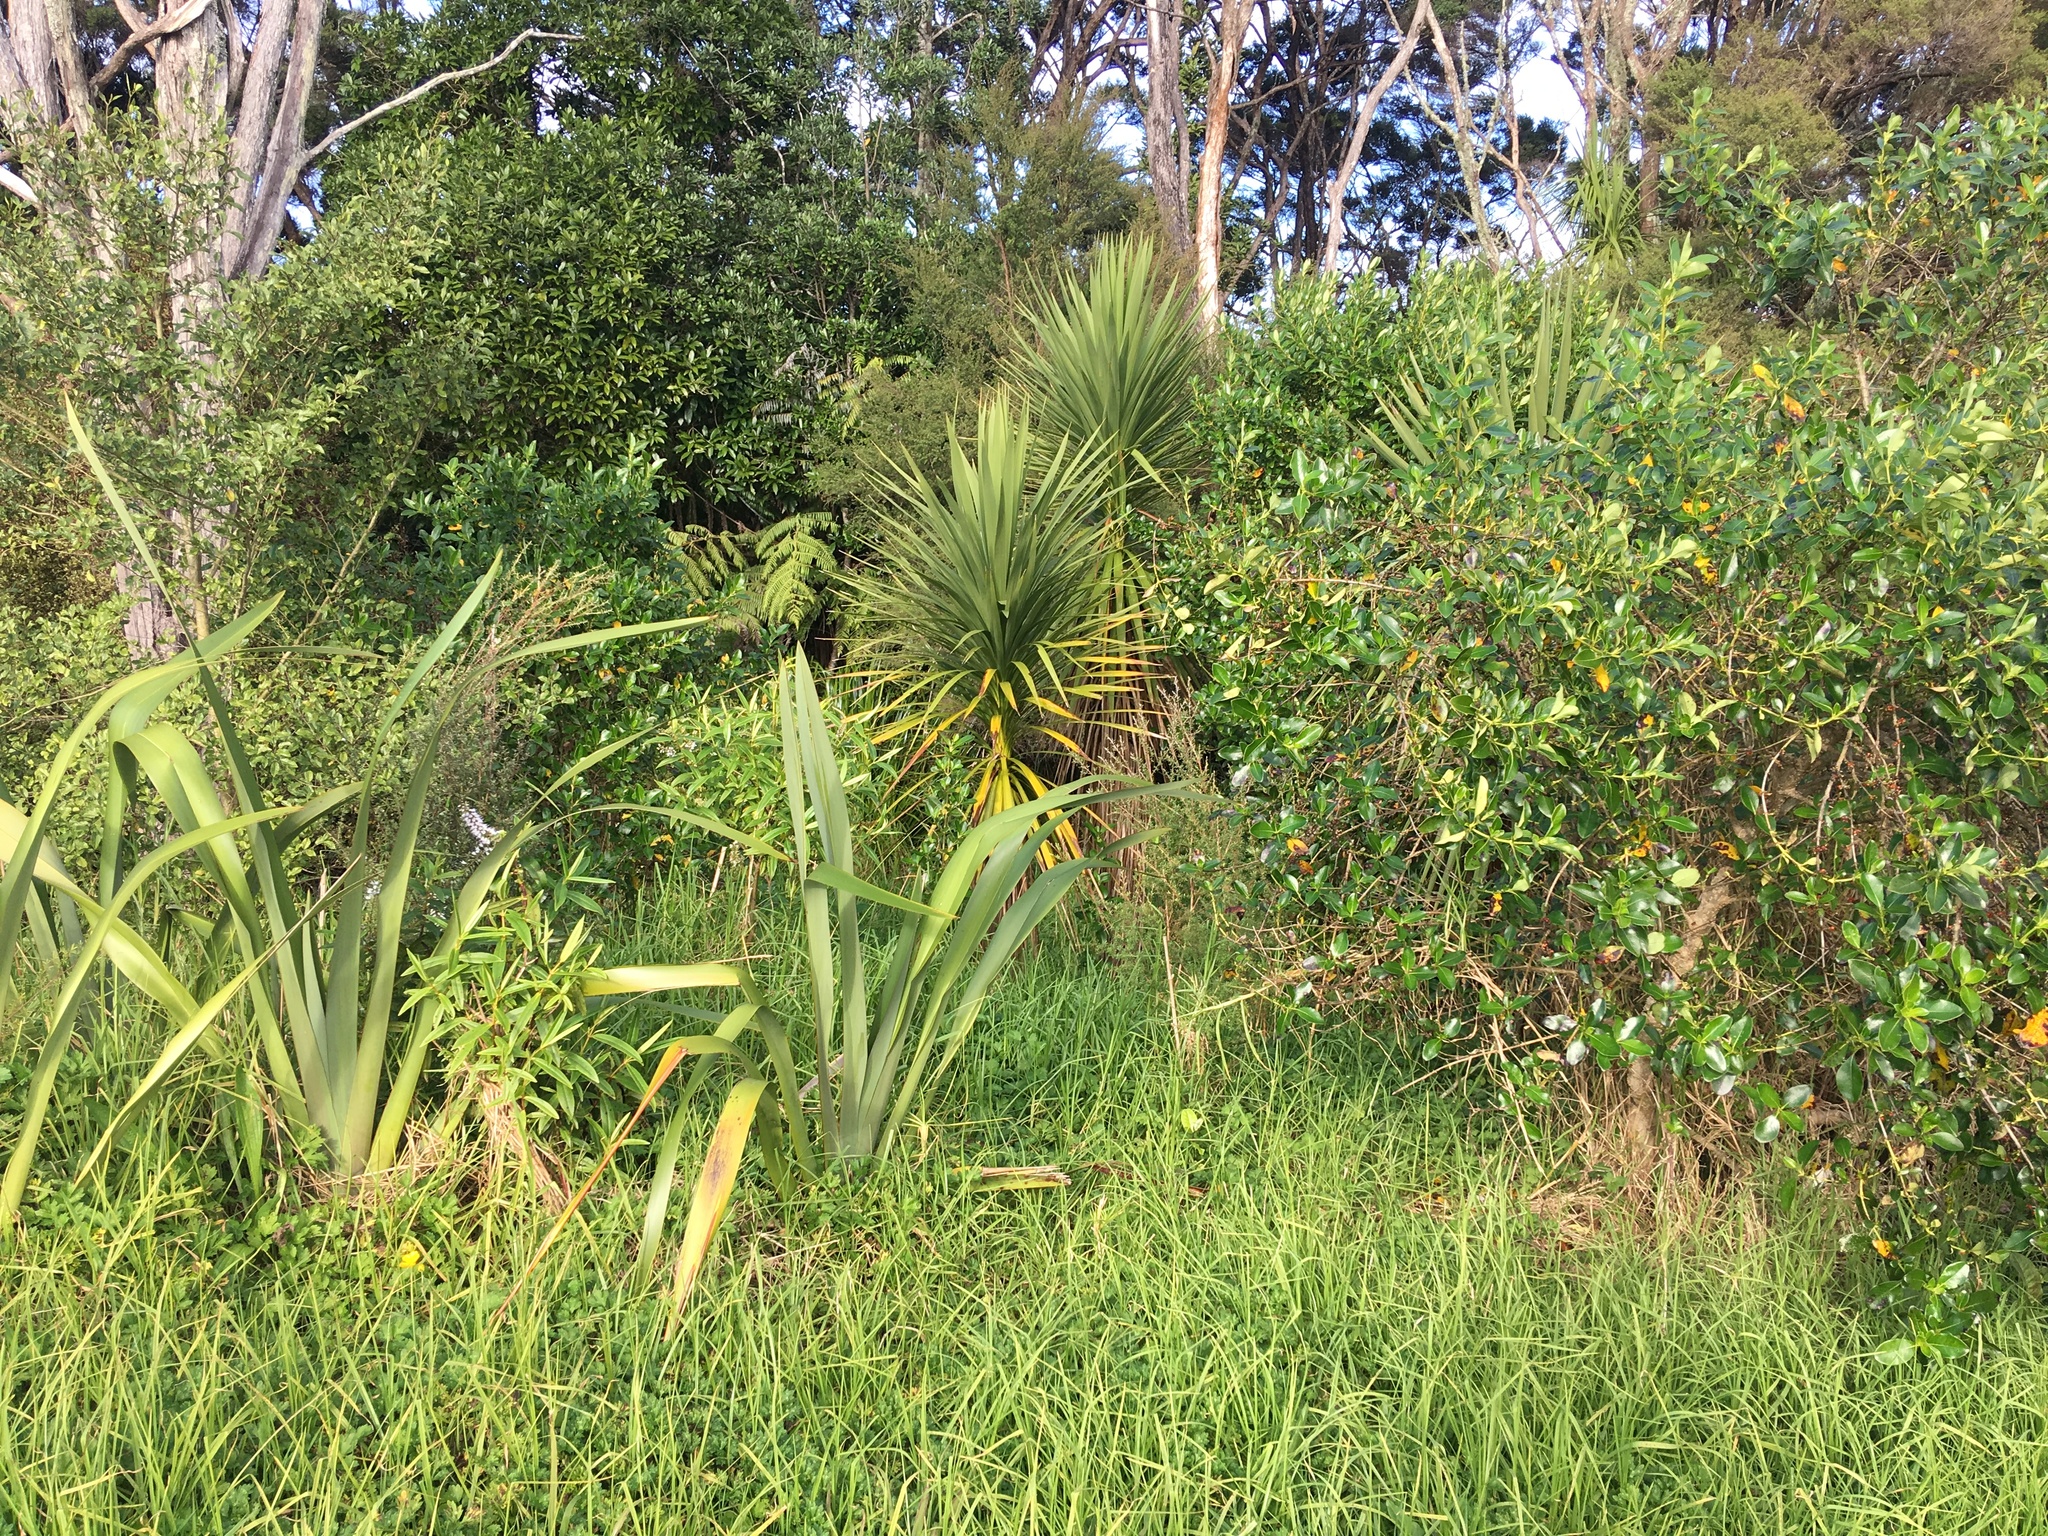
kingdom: Plantae
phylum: Tracheophyta
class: Liliopsida
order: Asparagales
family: Asparagaceae
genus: Cordyline
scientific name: Cordyline australis
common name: Cabbage-palm
